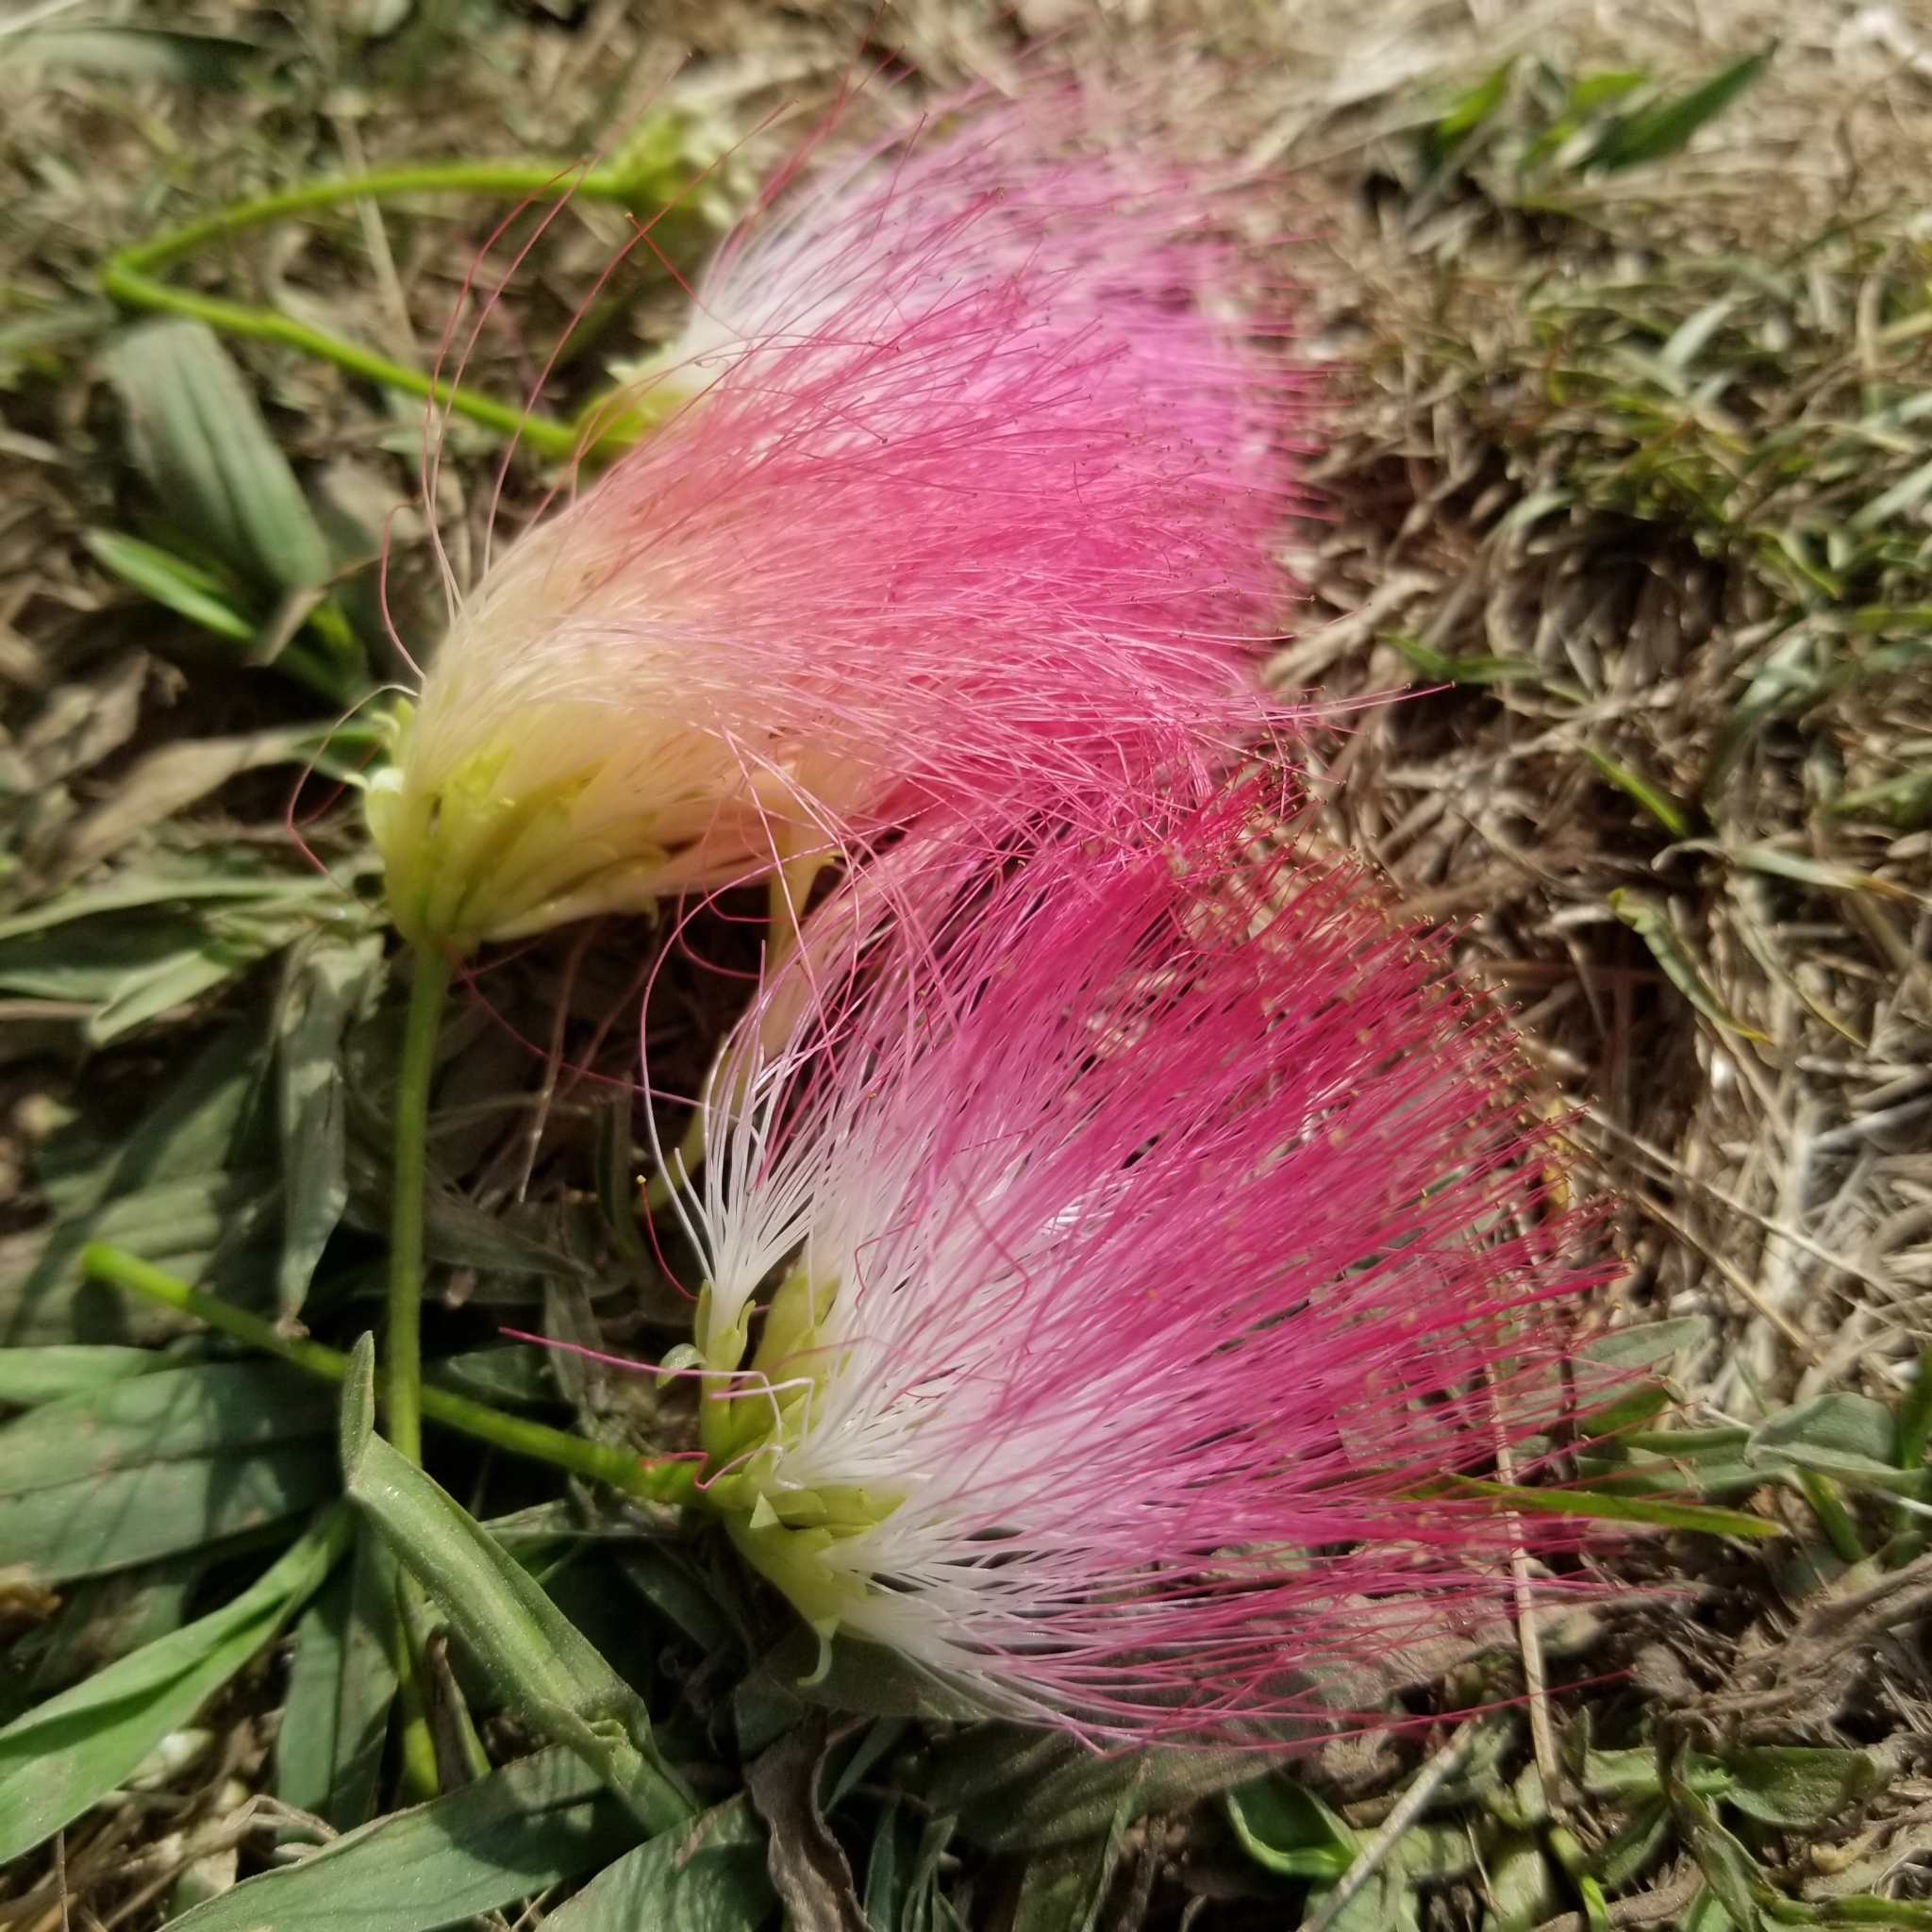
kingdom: Plantae
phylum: Tracheophyta
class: Magnoliopsida
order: Fabales
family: Fabaceae
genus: Albizia
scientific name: Albizia julibrissin
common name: Silktree
